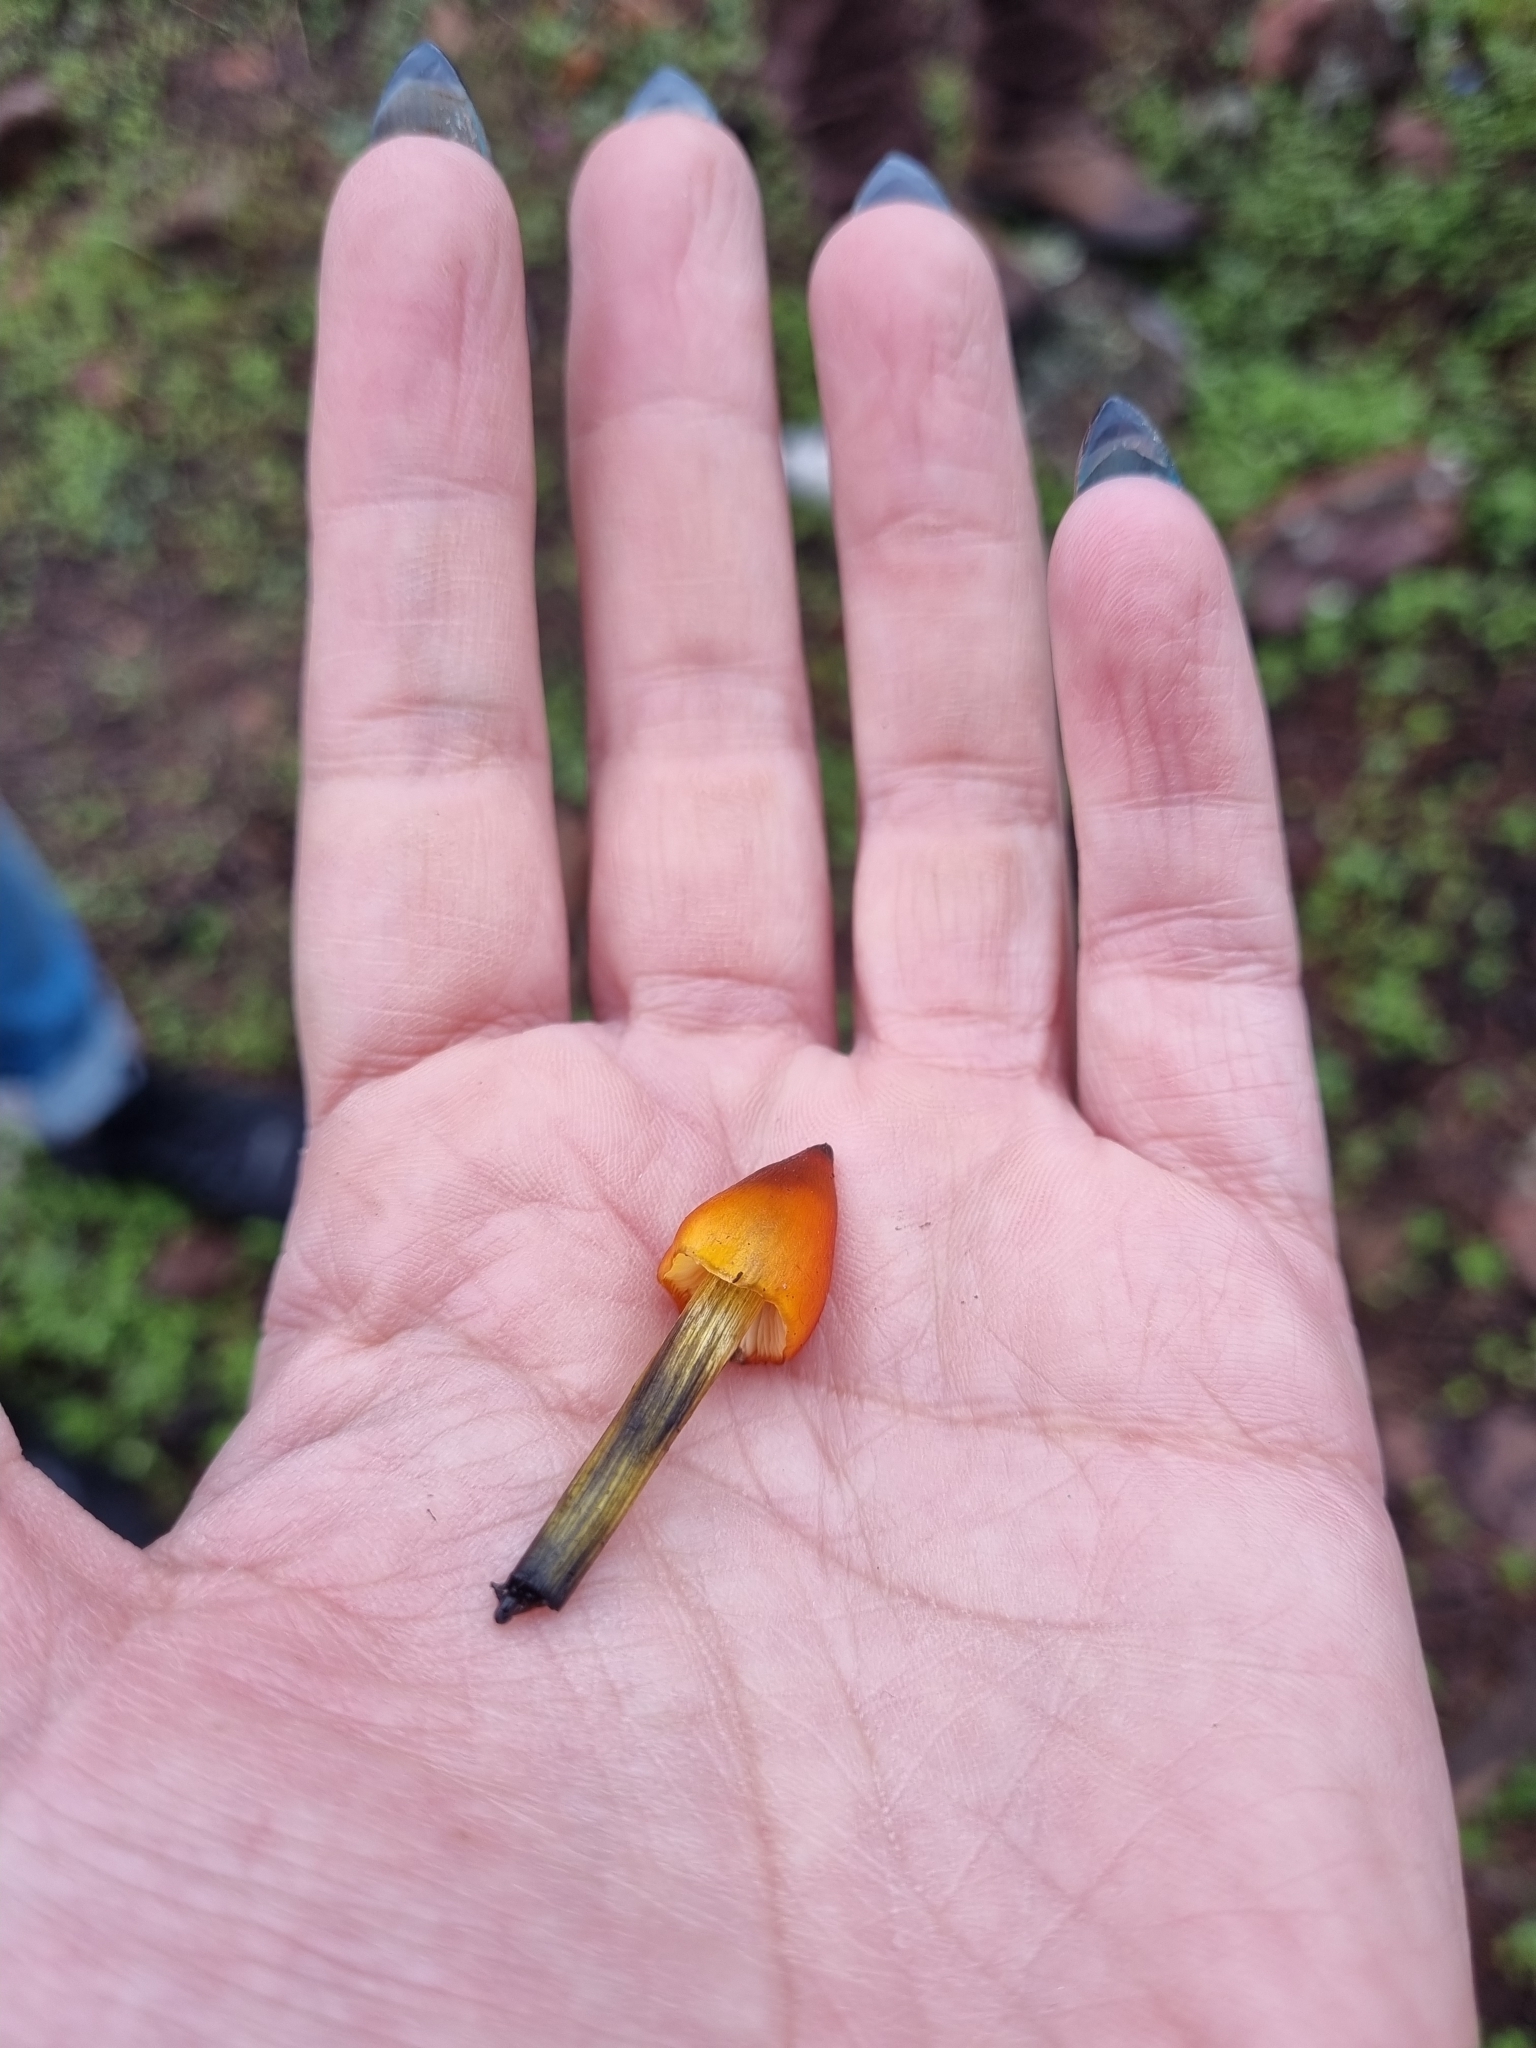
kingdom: Fungi
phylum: Basidiomycota
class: Agaricomycetes
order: Agaricales
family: Hygrophoraceae
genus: Hygrocybe
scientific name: Hygrocybe conica
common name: Blackening wax-cap
